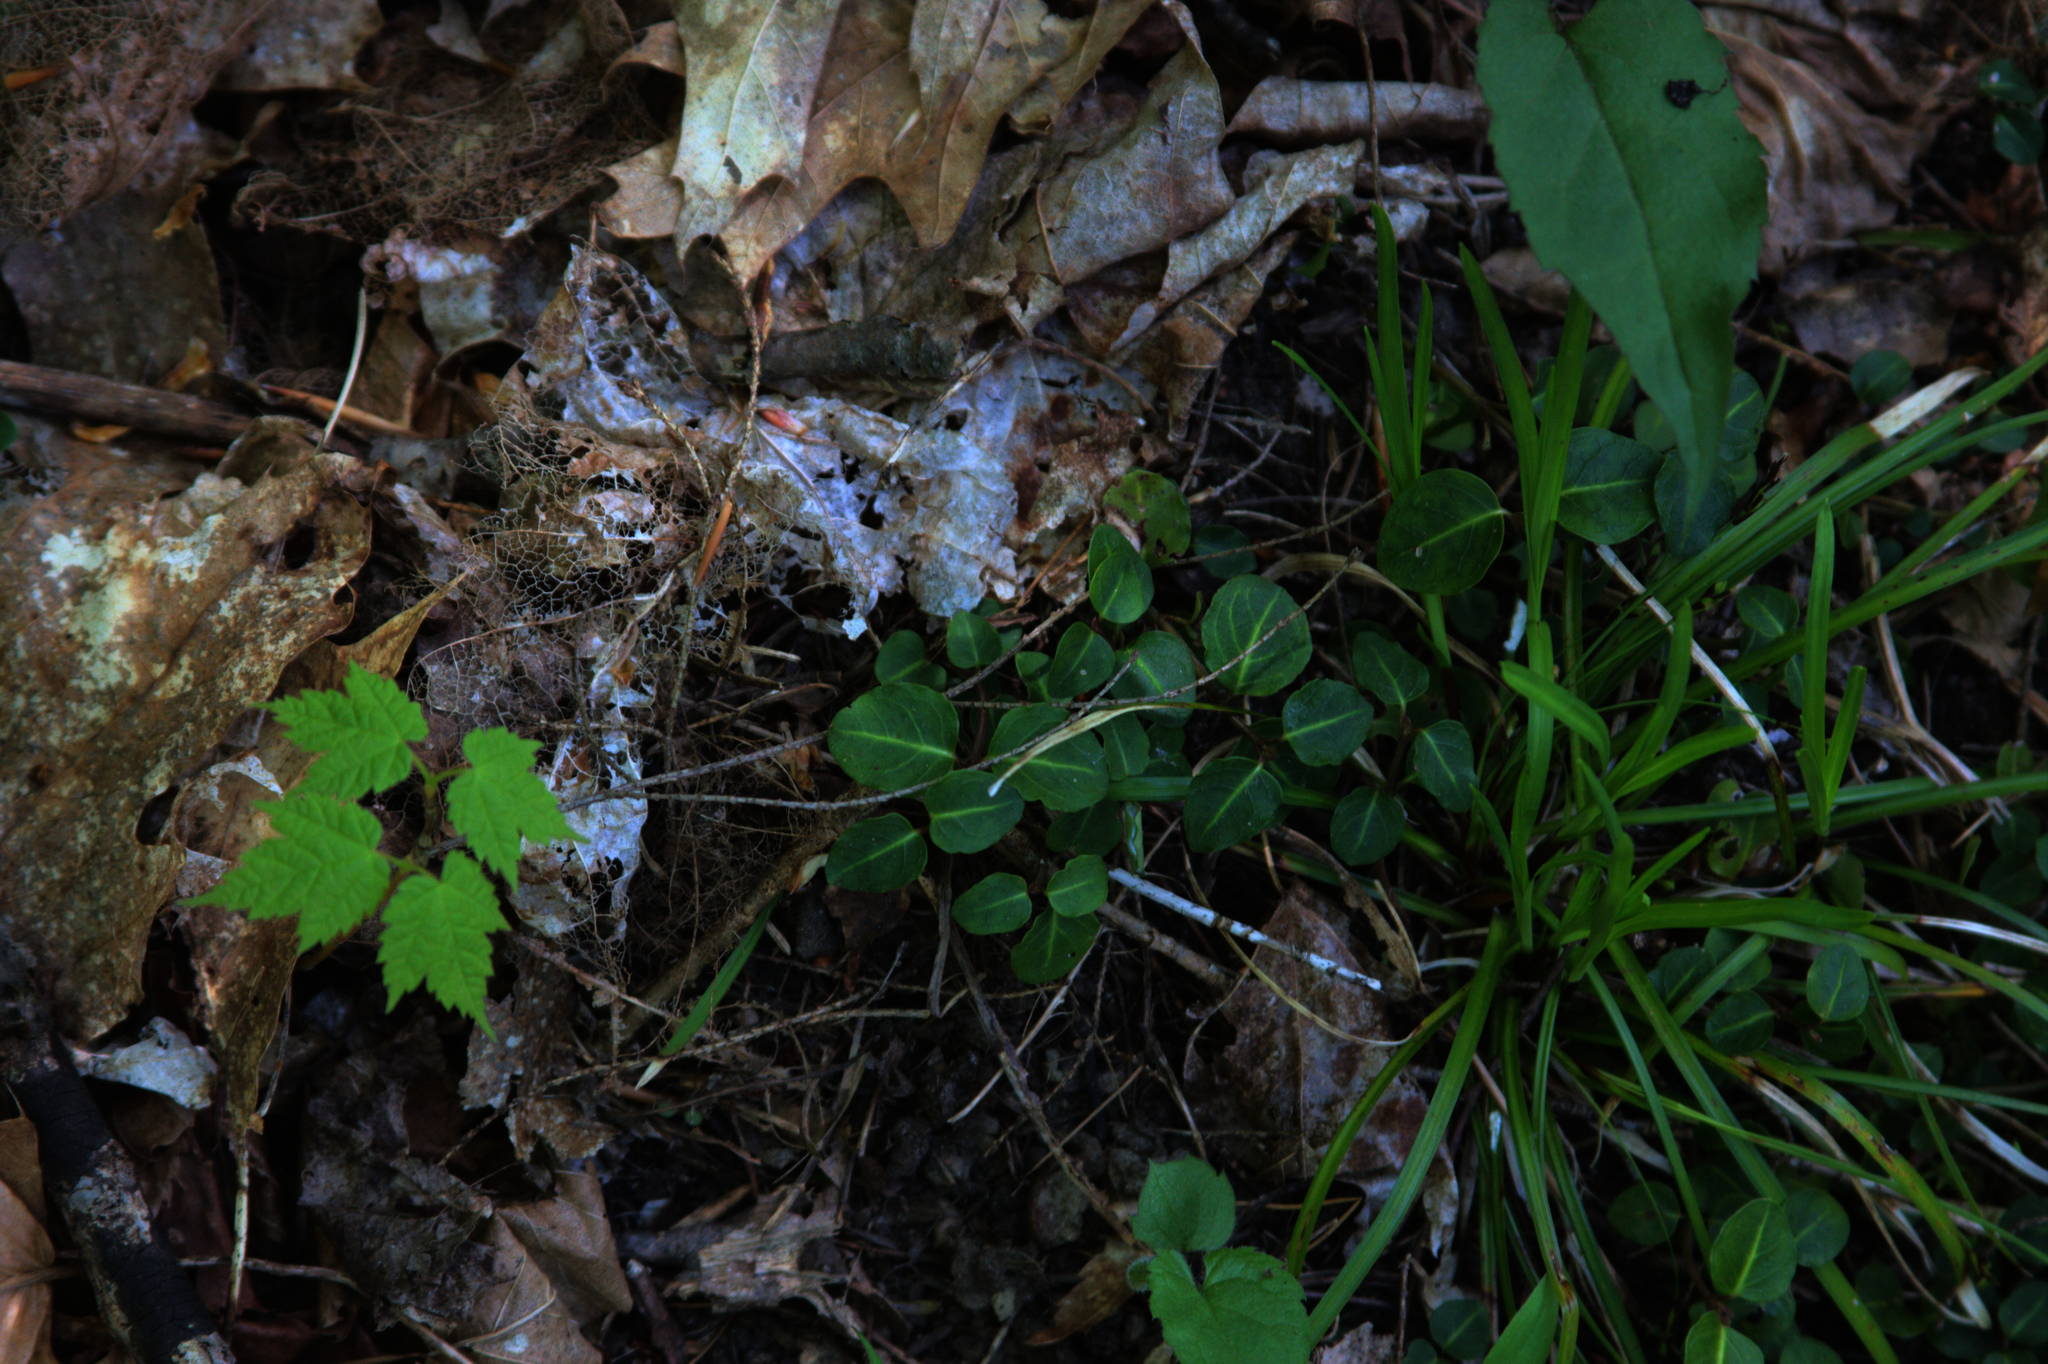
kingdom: Plantae
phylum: Tracheophyta
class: Magnoliopsida
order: Gentianales
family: Rubiaceae
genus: Mitchella
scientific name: Mitchella repens
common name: Partridge-berry
